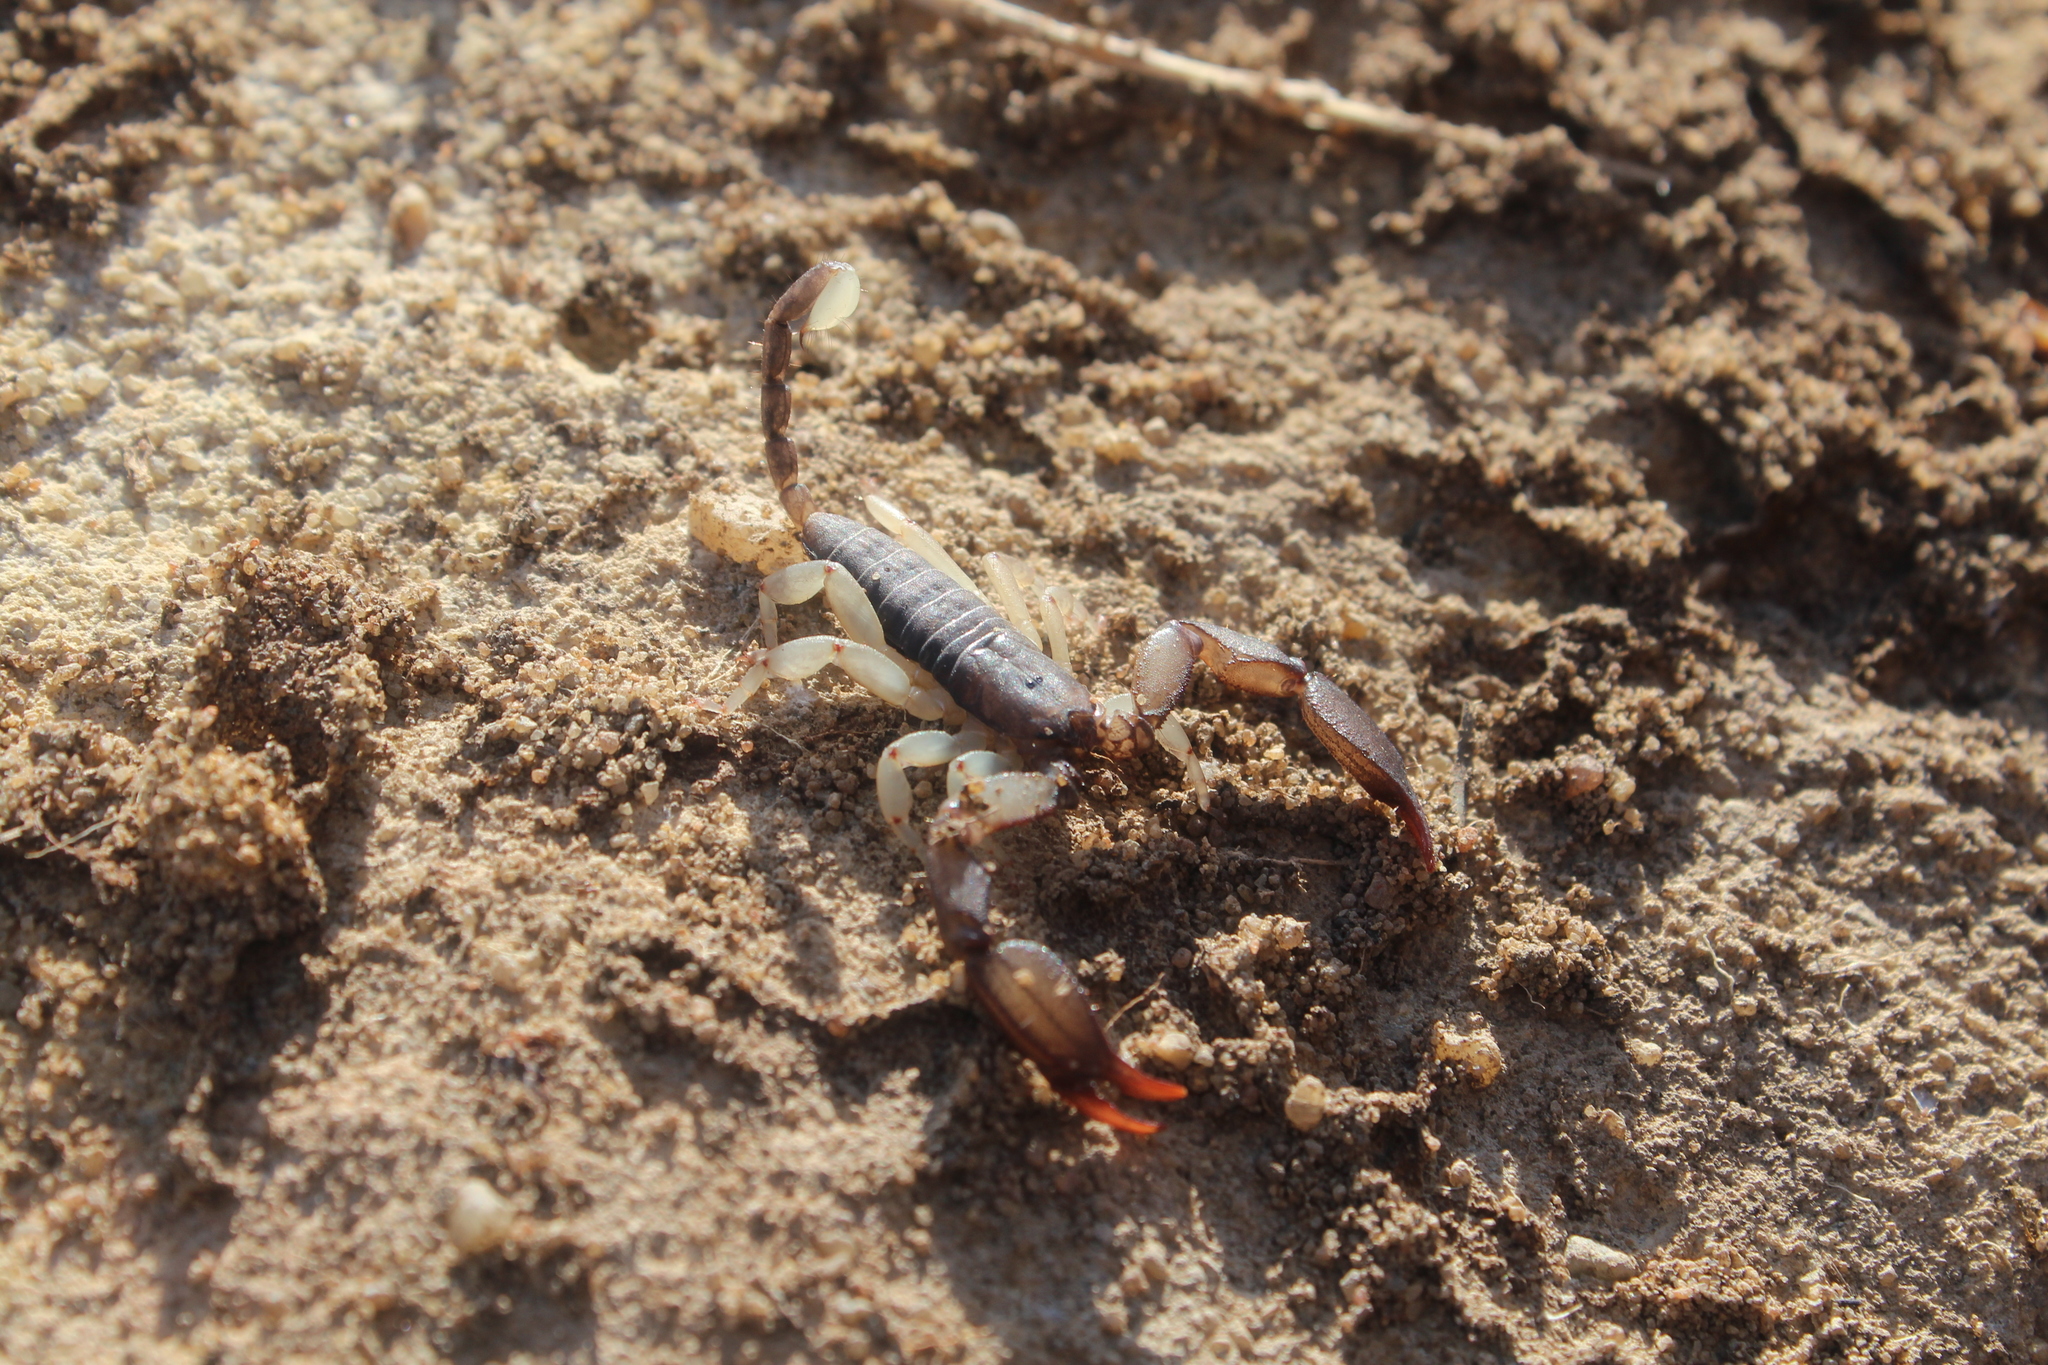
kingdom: Animalia
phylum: Arthropoda
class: Arachnida
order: Scorpiones
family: Hormuridae
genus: Opisthacanthus
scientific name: Opisthacanthus madagascariensis
